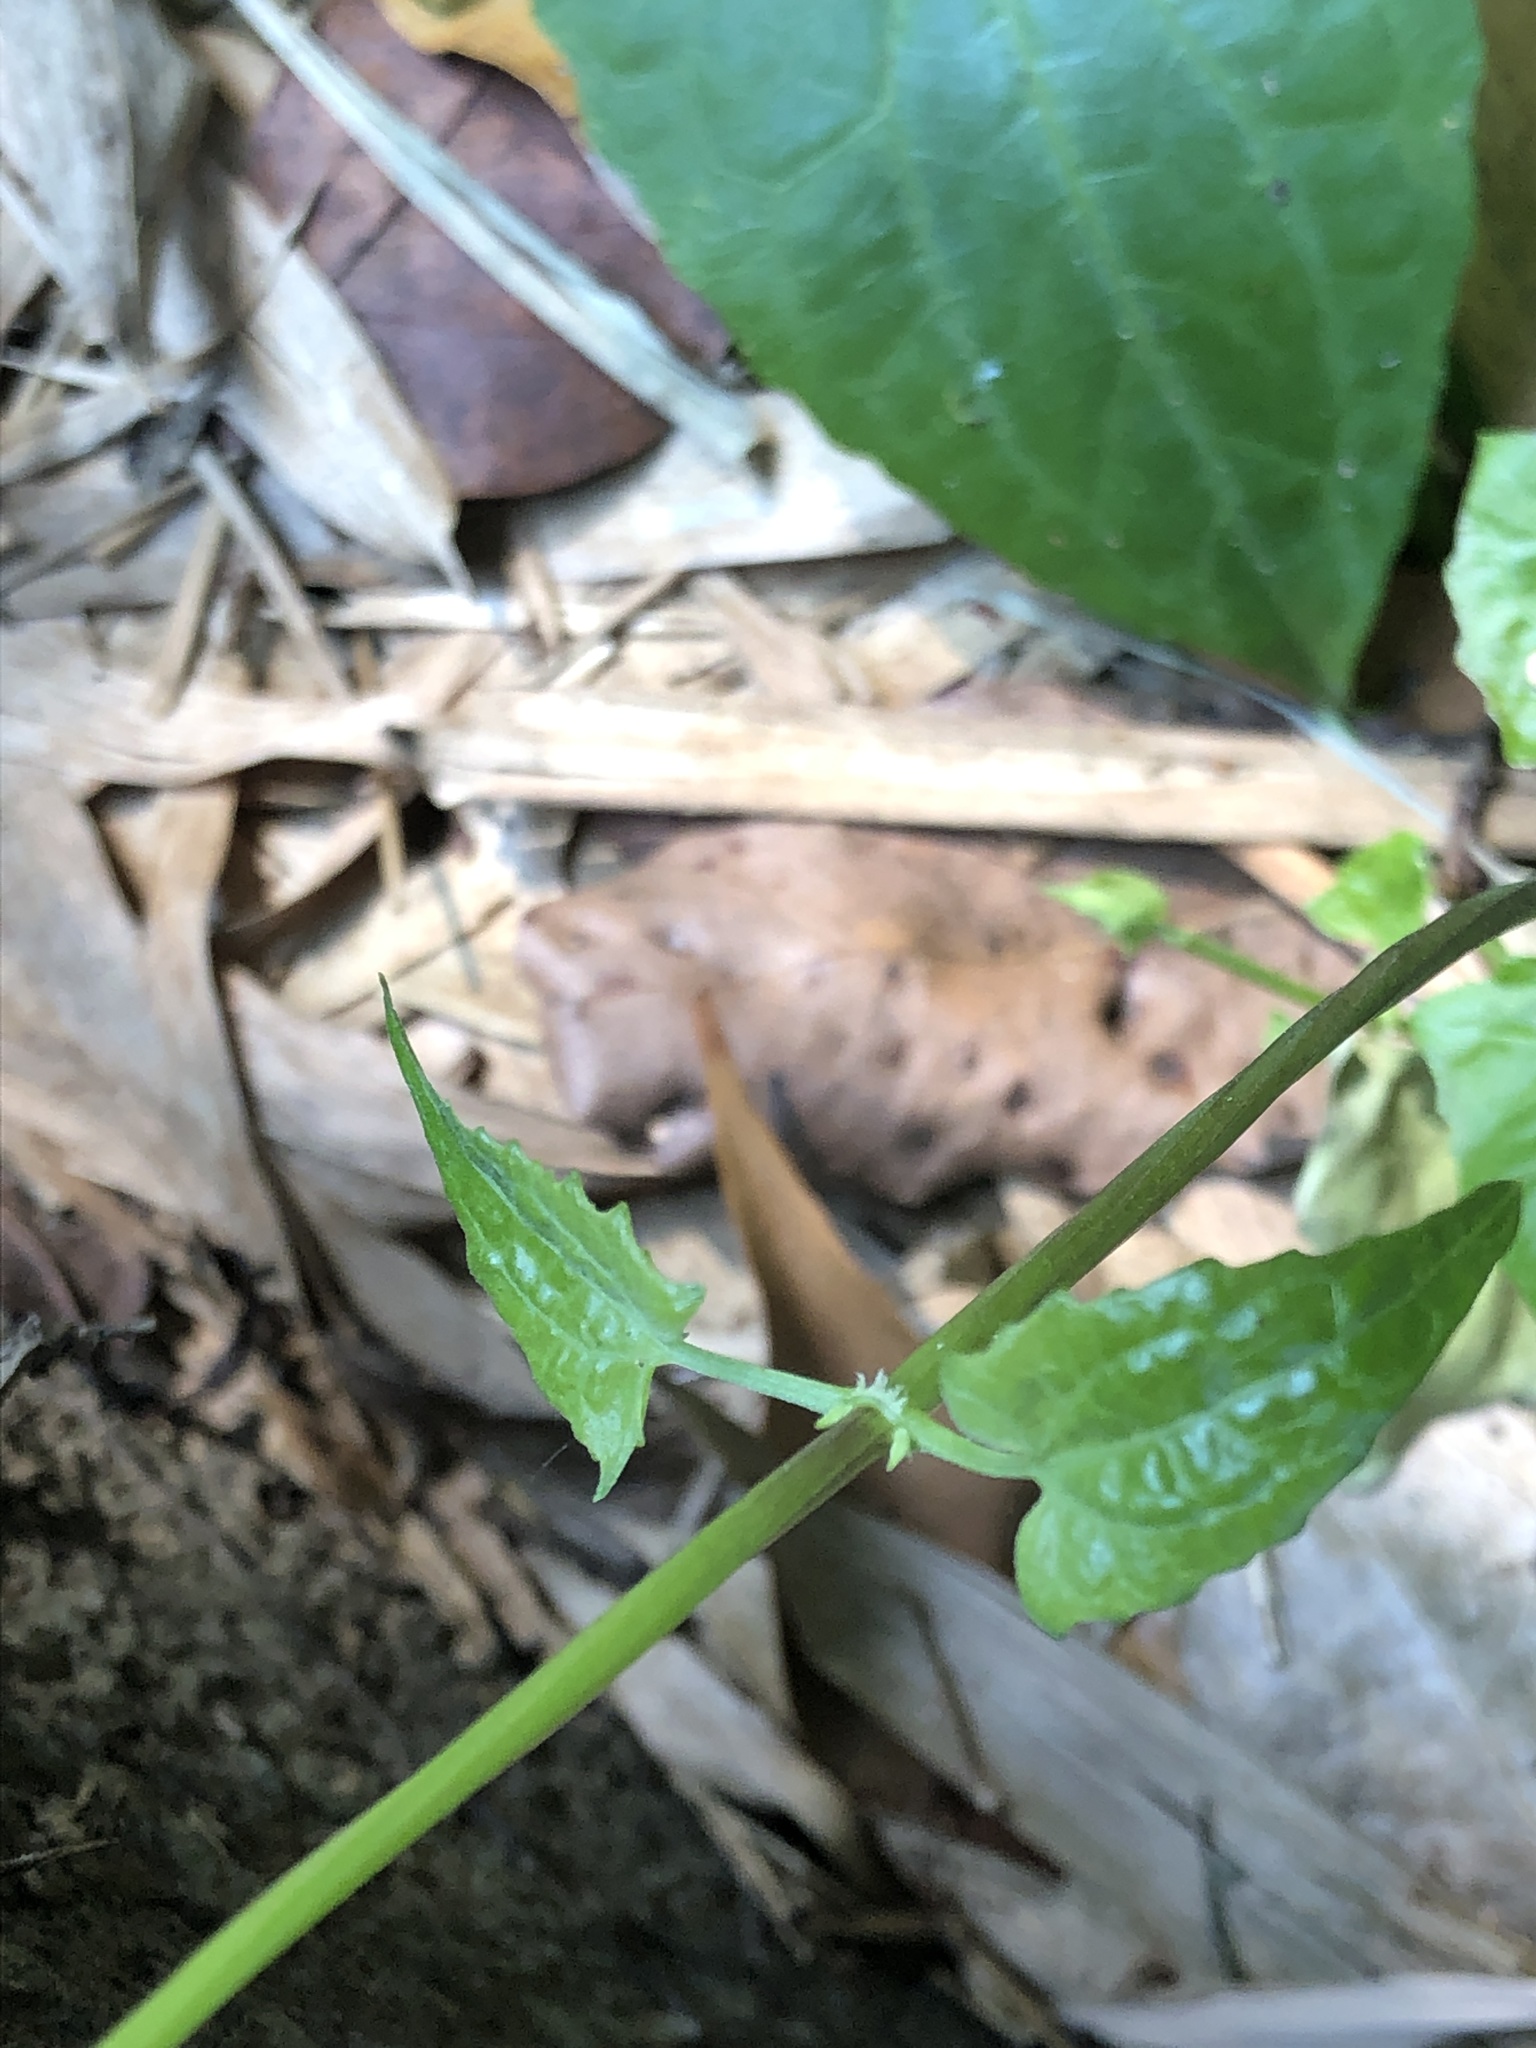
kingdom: Plantae
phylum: Tracheophyta
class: Magnoliopsida
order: Asterales
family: Asteraceae
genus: Mikania
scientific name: Mikania micrantha
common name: Mile-a-minute
